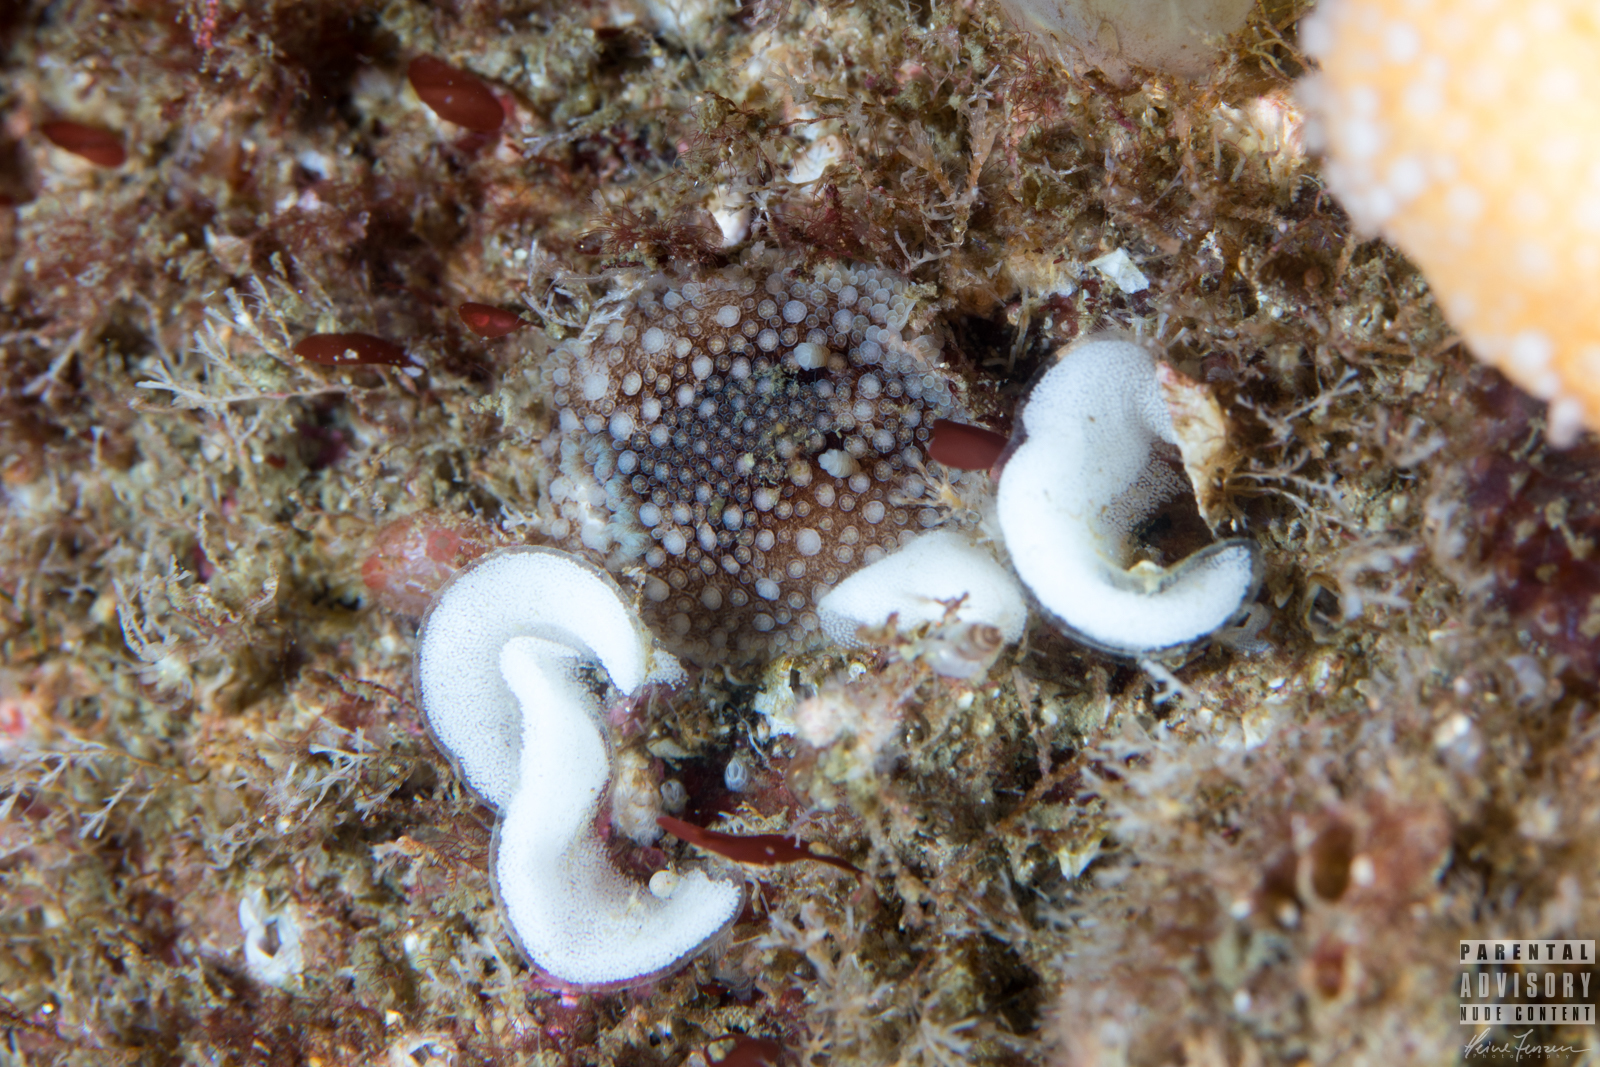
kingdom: Animalia
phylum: Mollusca
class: Gastropoda
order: Nudibranchia
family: Onchidorididae
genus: Onchidoris
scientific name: Onchidoris bilamellata
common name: Barnacle-eating onchidoris
